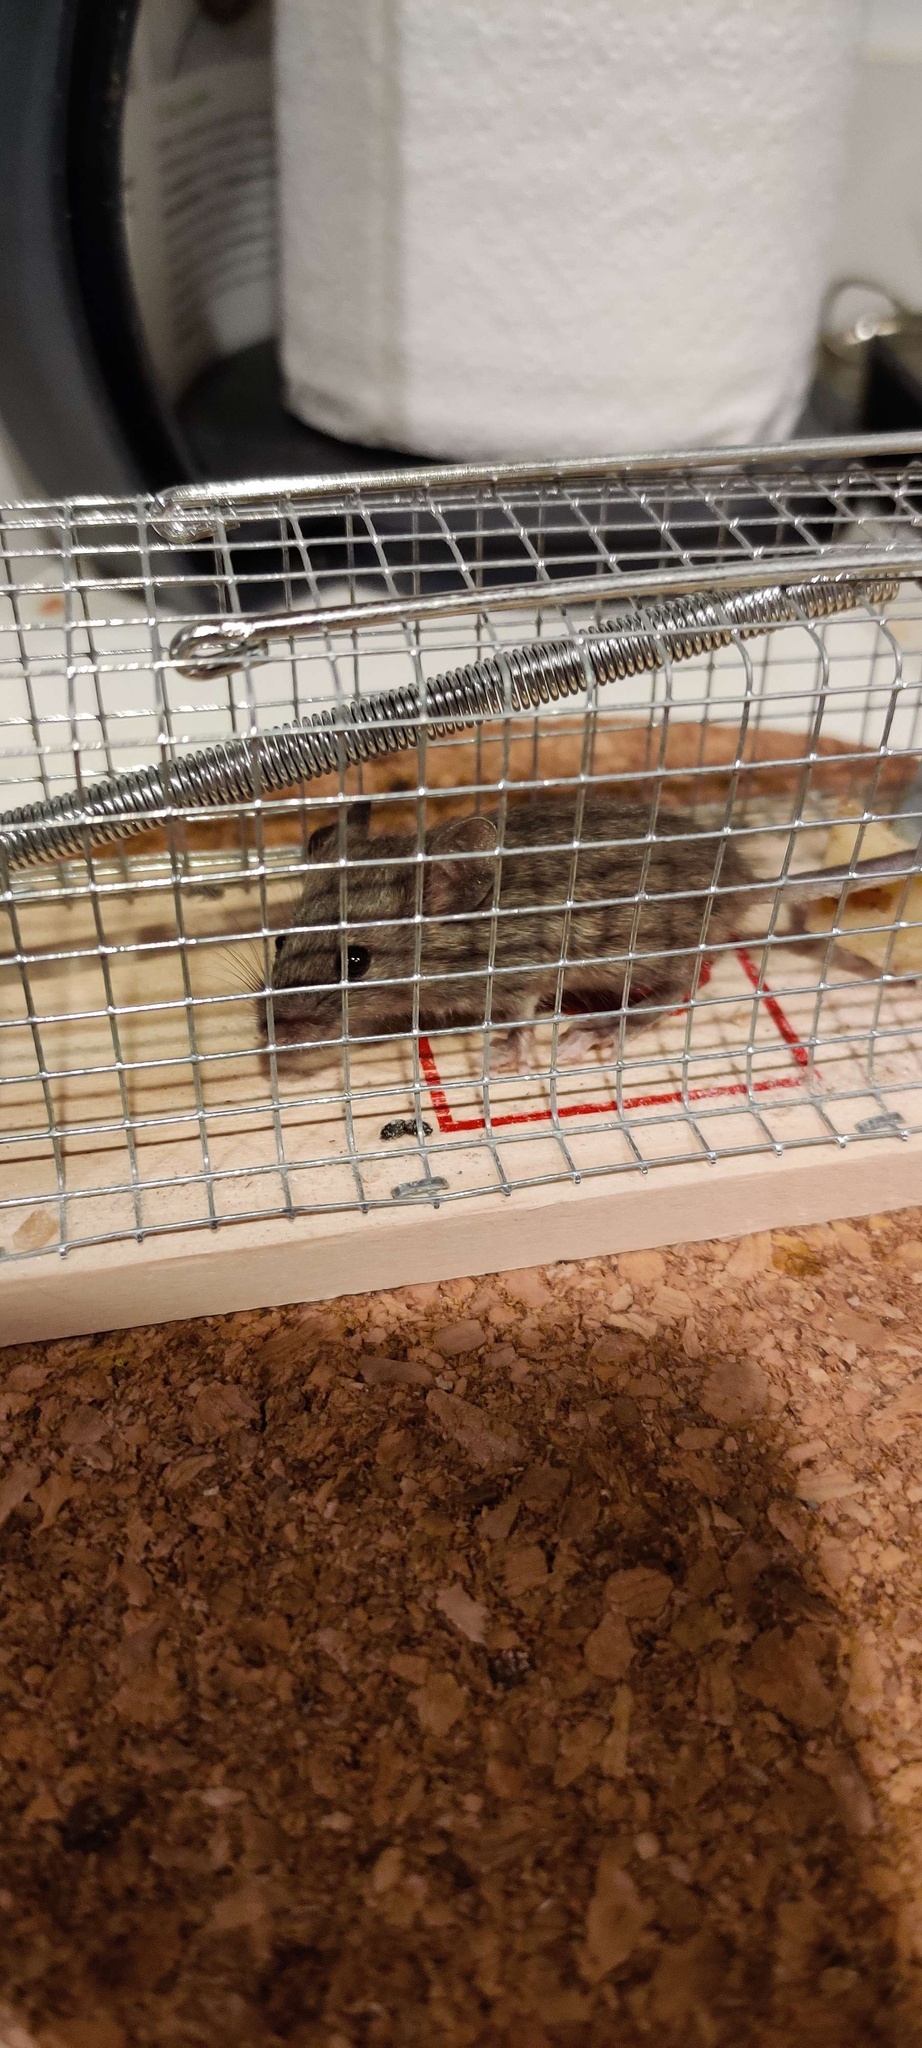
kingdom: Animalia
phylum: Chordata
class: Mammalia
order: Rodentia
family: Muridae
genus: Mus
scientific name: Mus musculus
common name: House mouse
